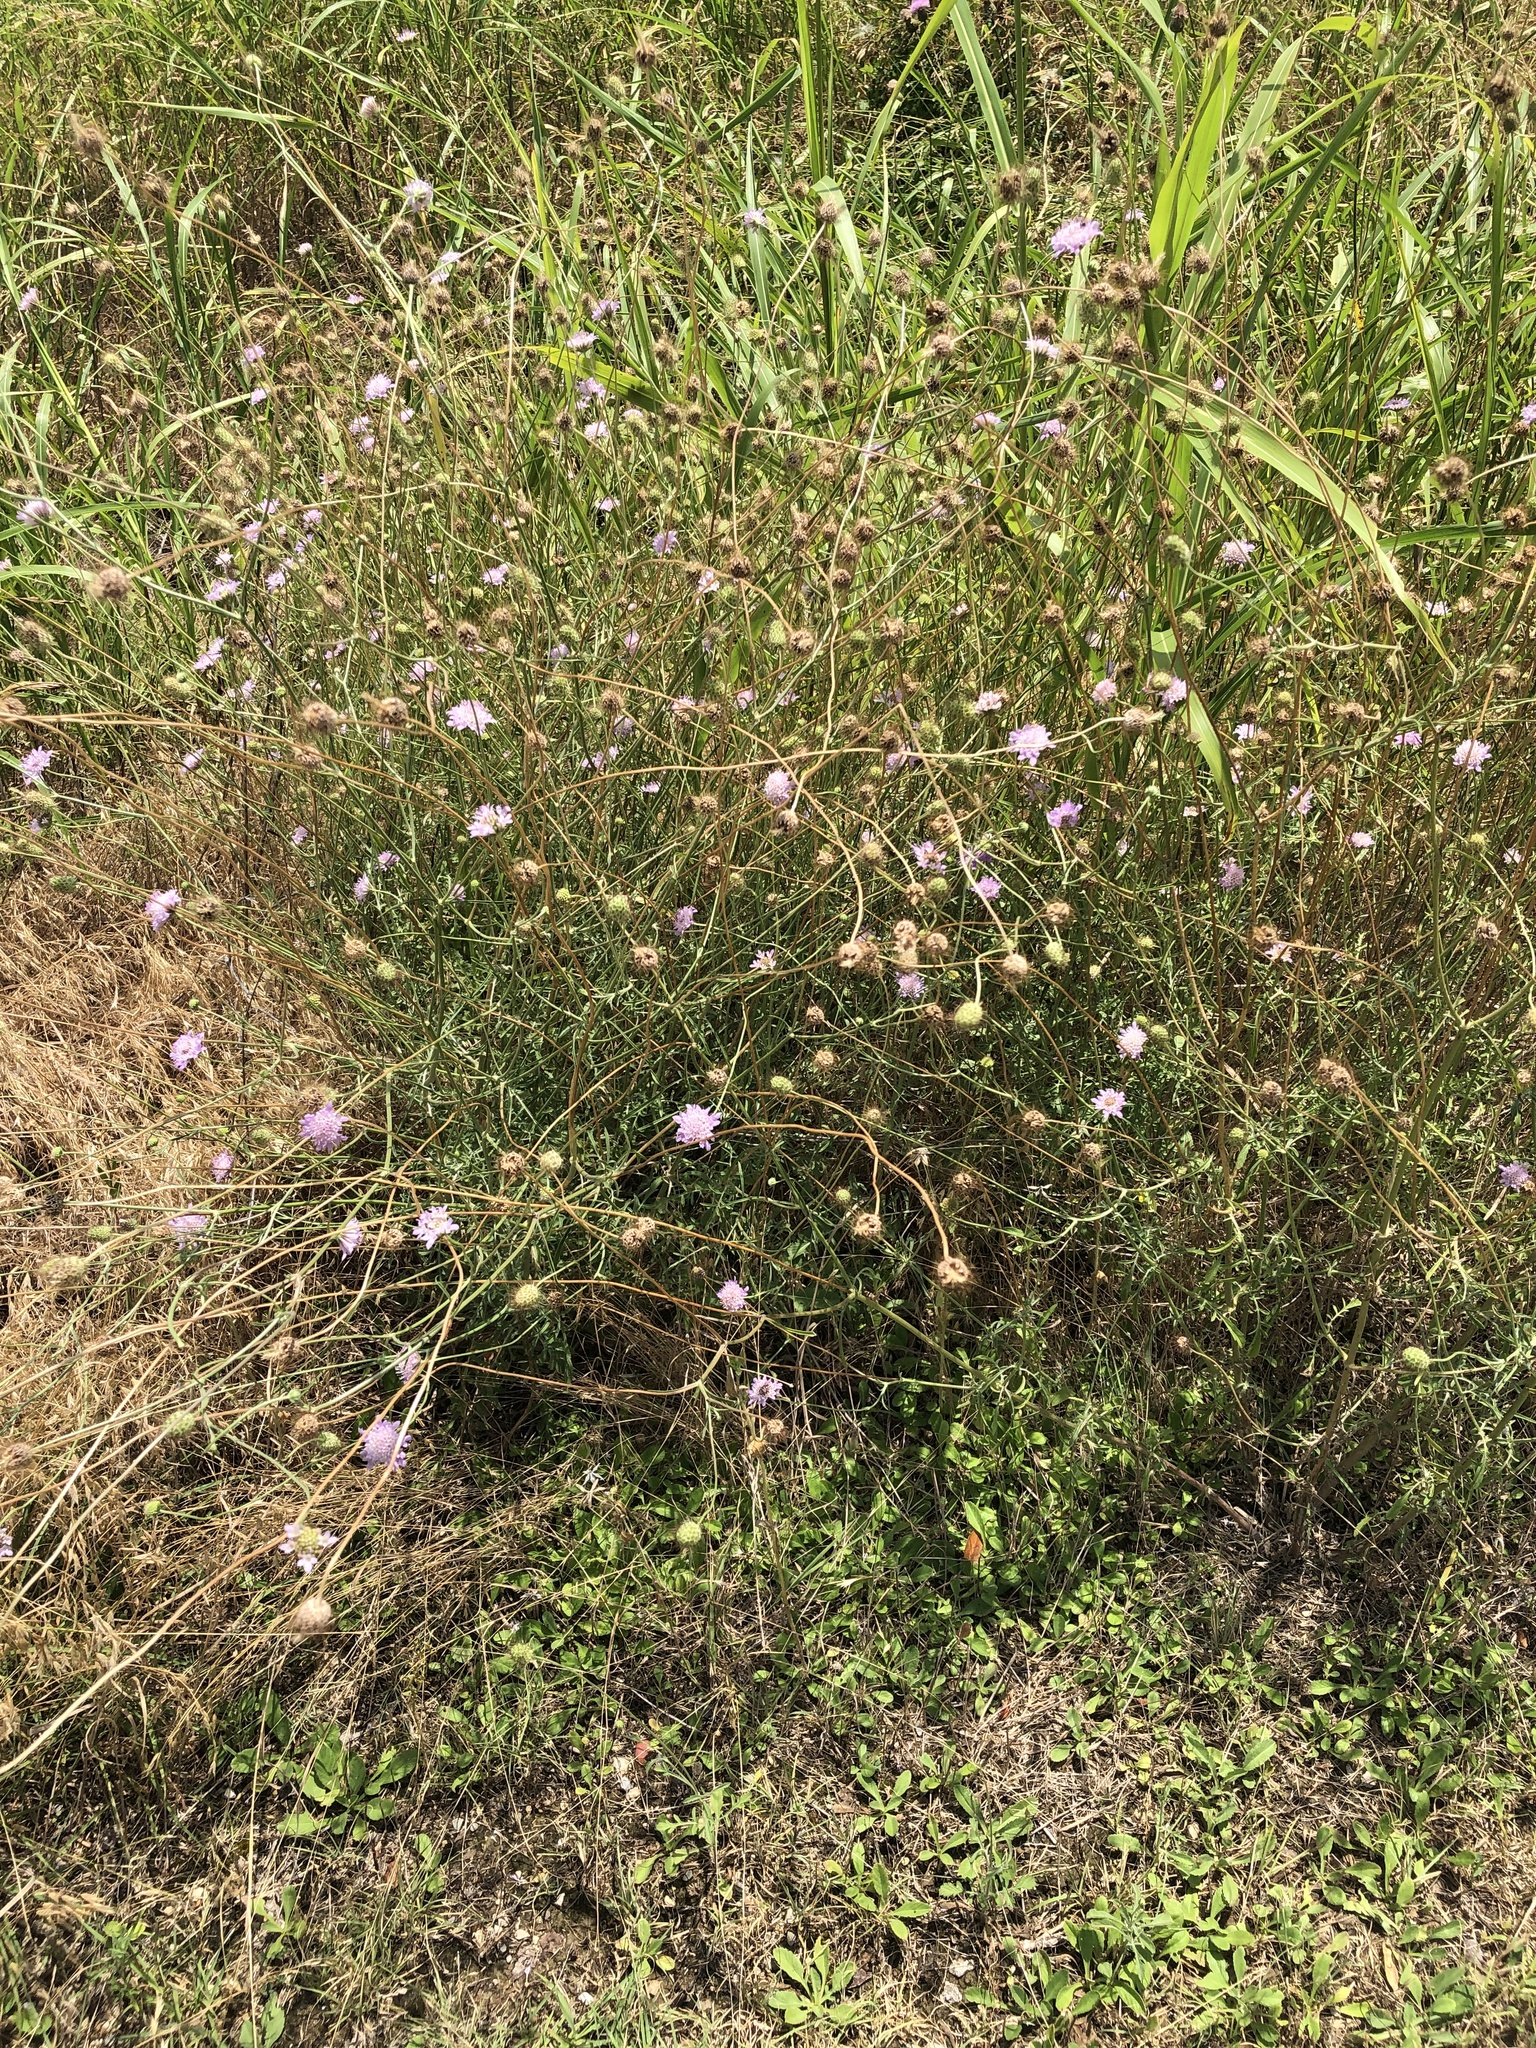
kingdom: Plantae
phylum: Tracheophyta
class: Magnoliopsida
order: Dipsacales
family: Caprifoliaceae
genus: Sixalix
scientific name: Sixalix atropurpurea
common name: Sweet scabious
